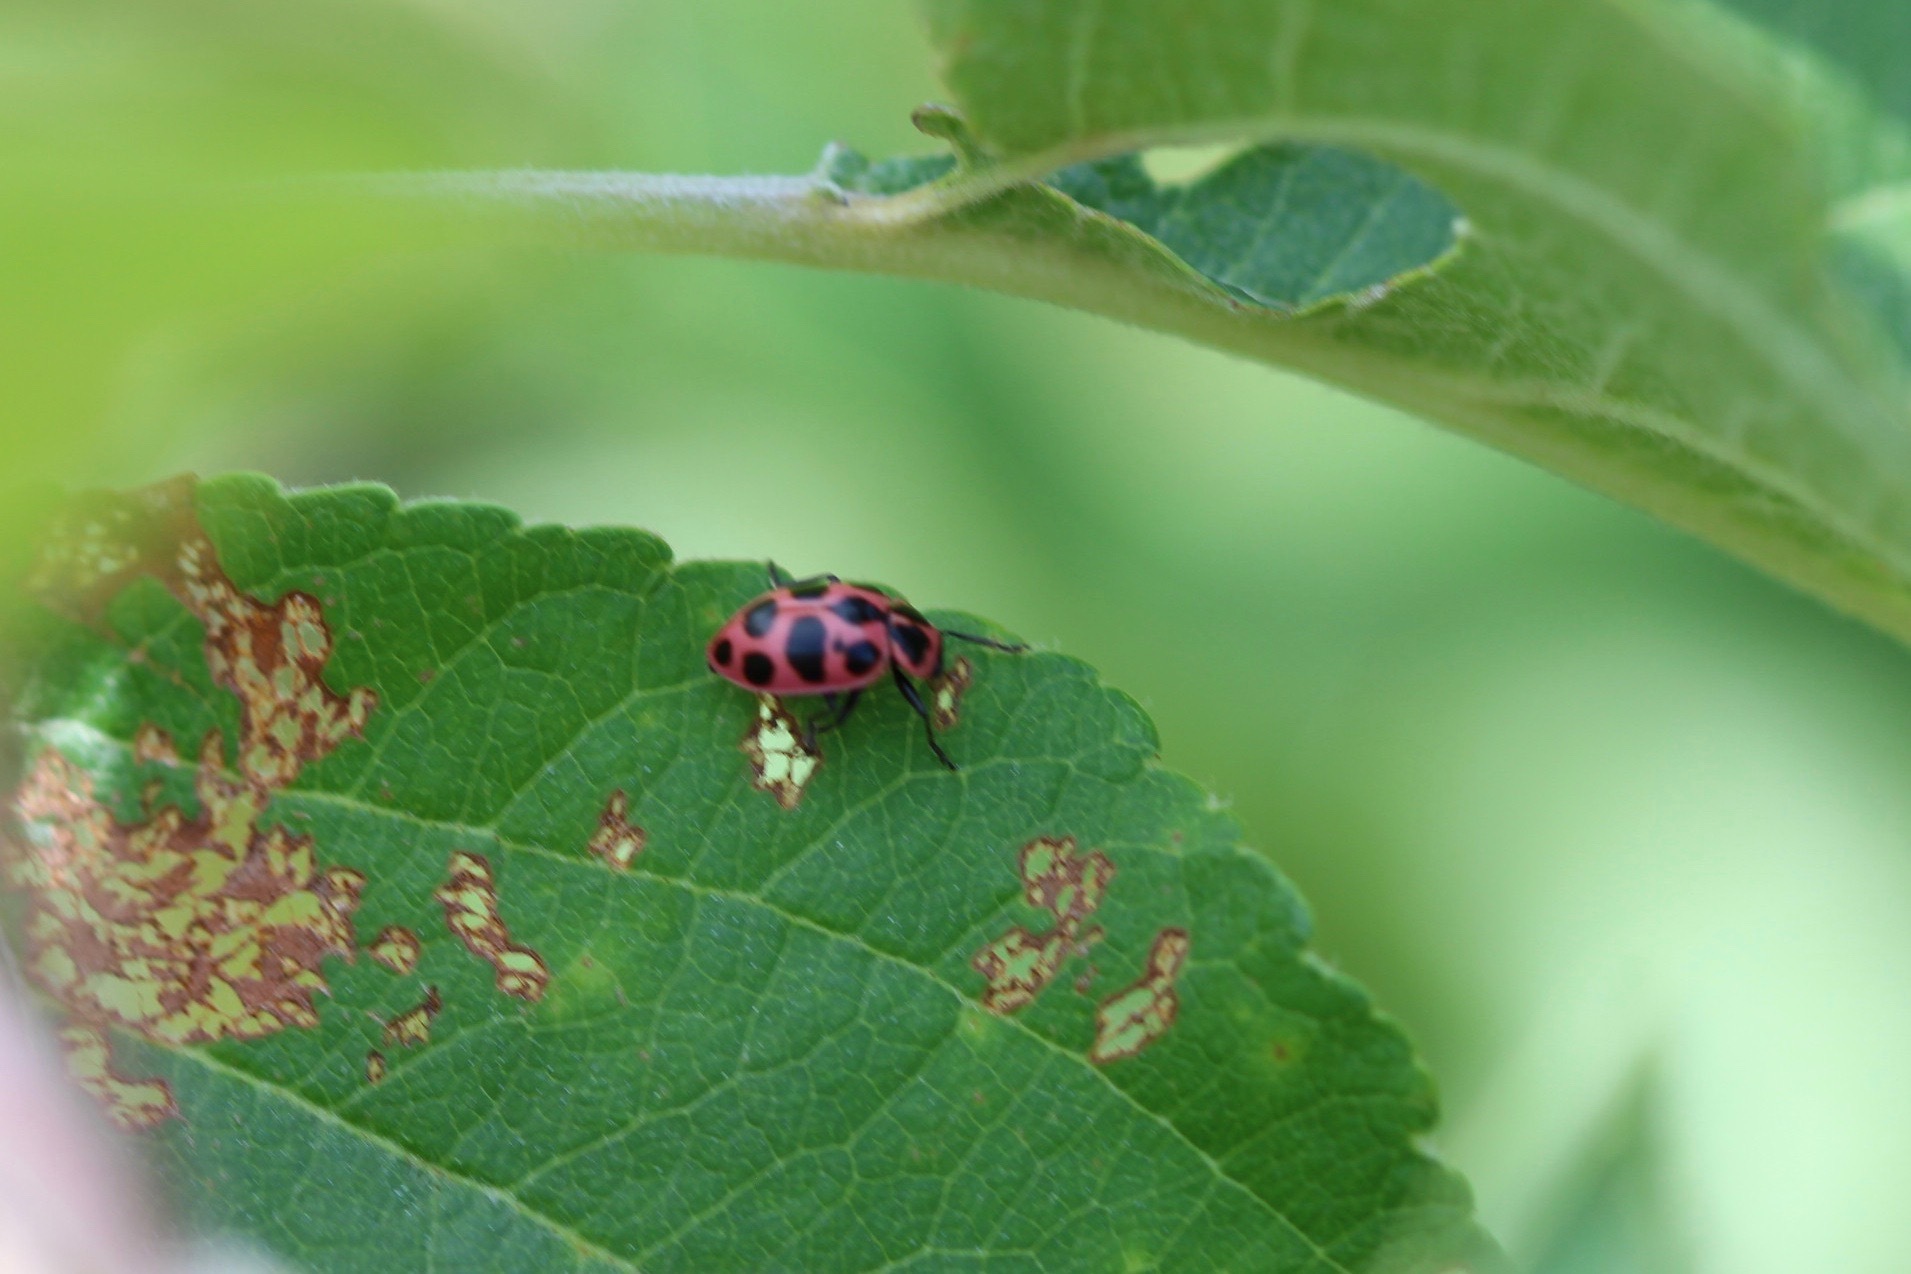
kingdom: Animalia
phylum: Arthropoda
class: Insecta
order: Coleoptera
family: Coccinellidae
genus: Coleomegilla
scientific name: Coleomegilla maculata
